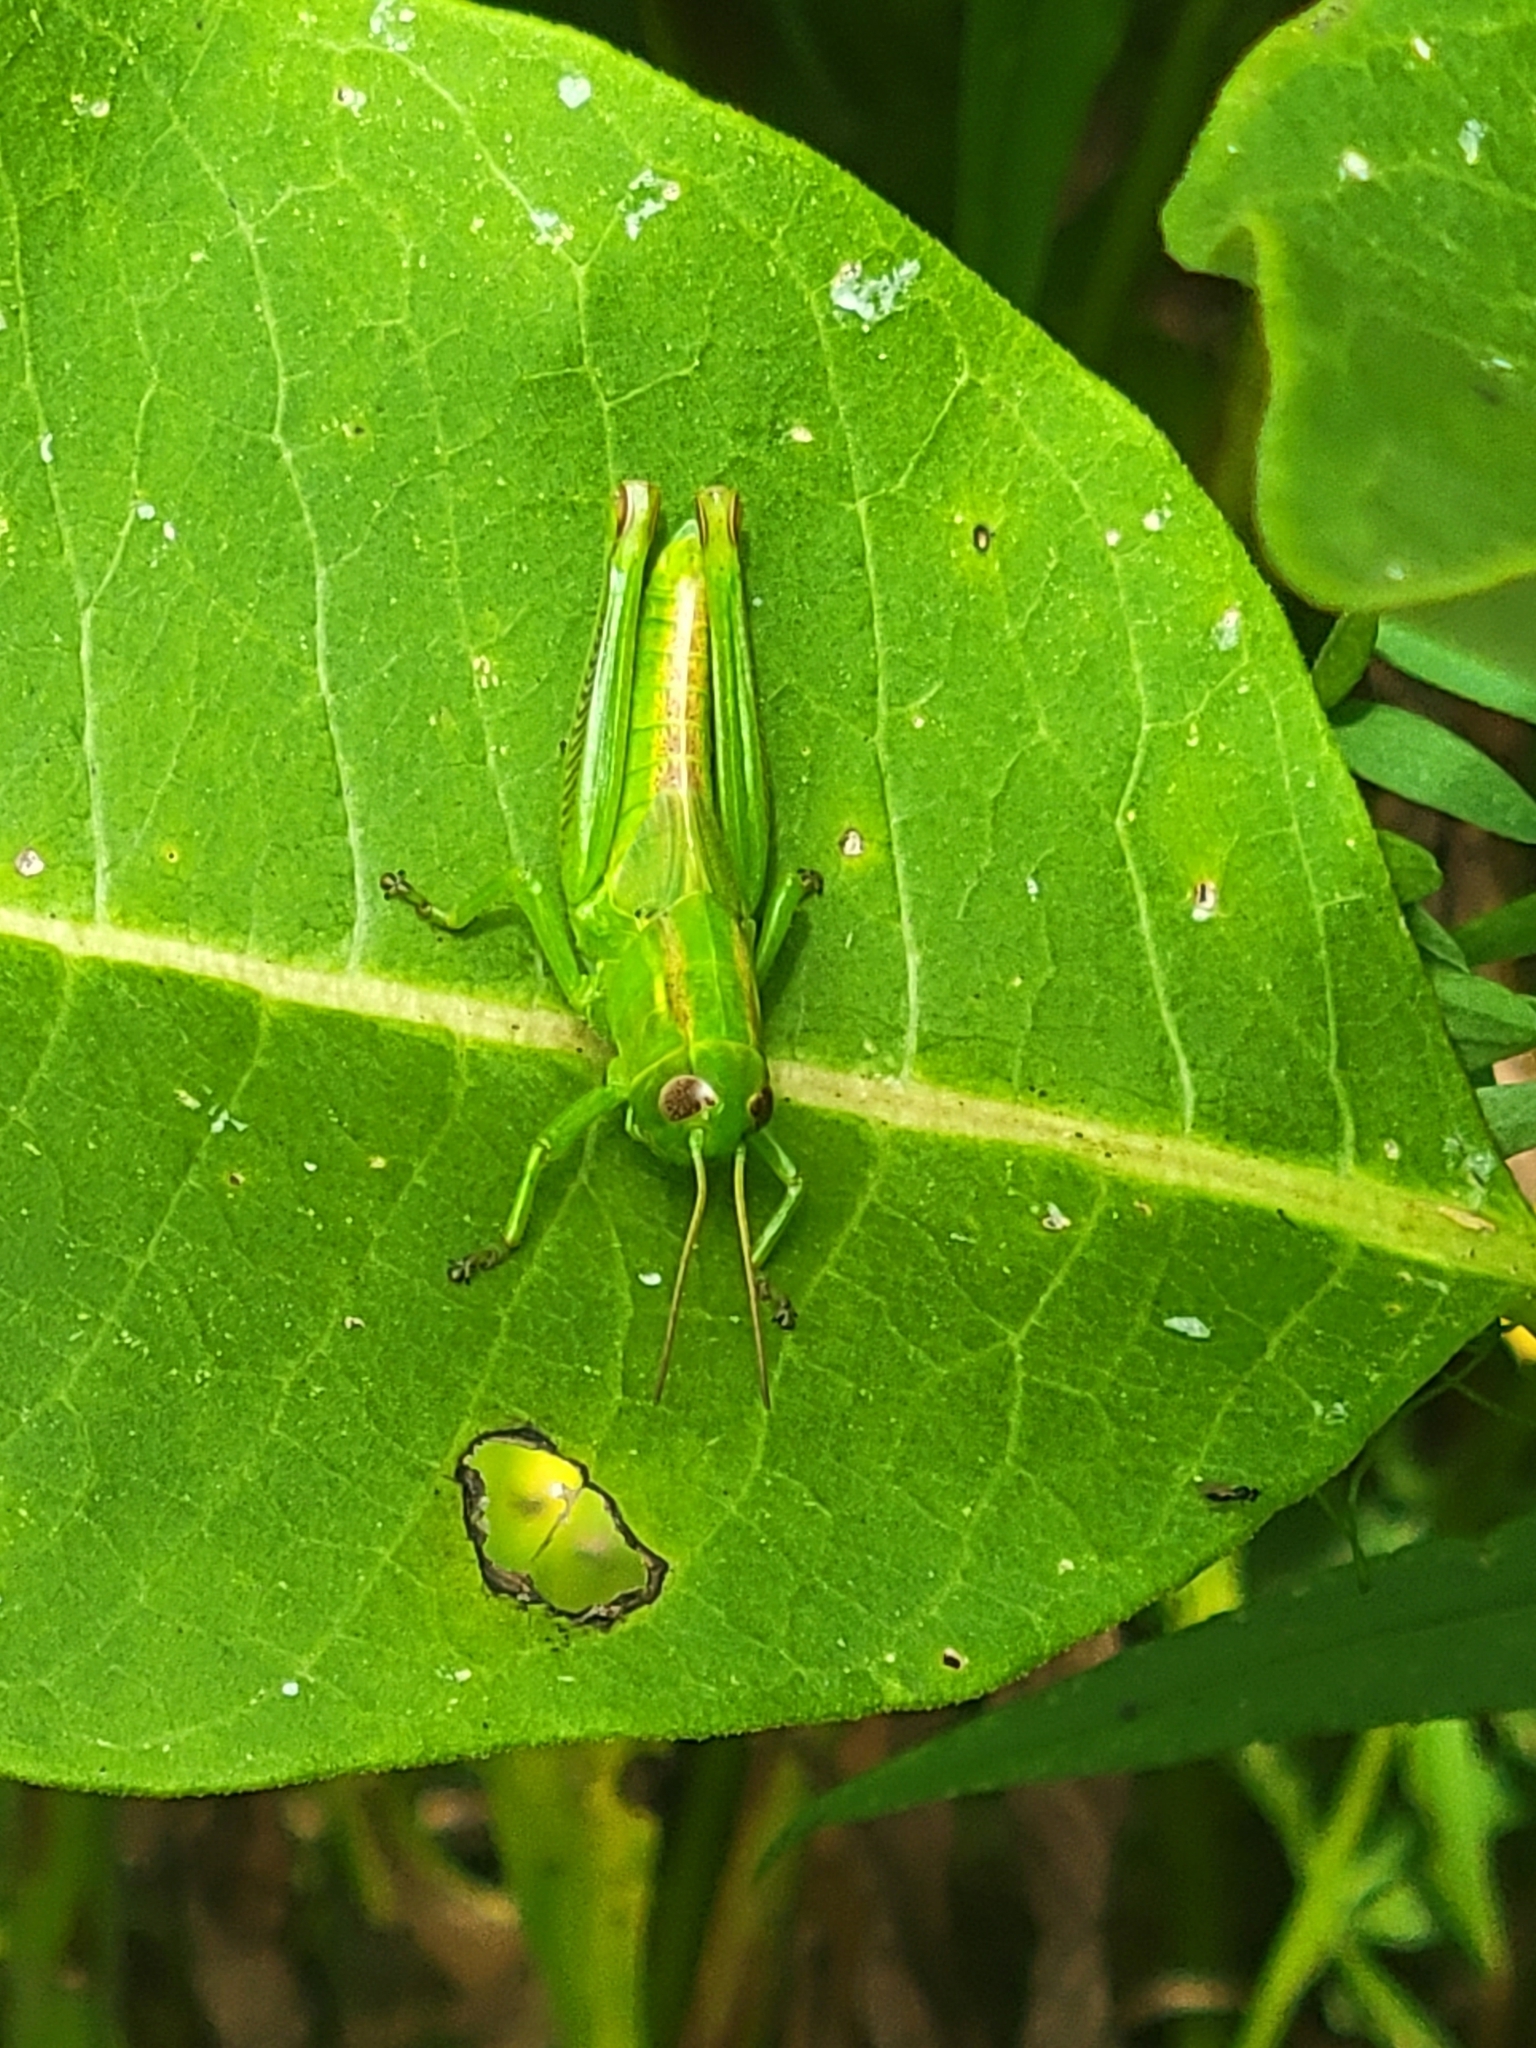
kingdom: Animalia
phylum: Arthropoda
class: Insecta
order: Orthoptera
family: Acrididae
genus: Melanoplus
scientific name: Melanoplus bivittatus
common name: Two-striped grasshopper
